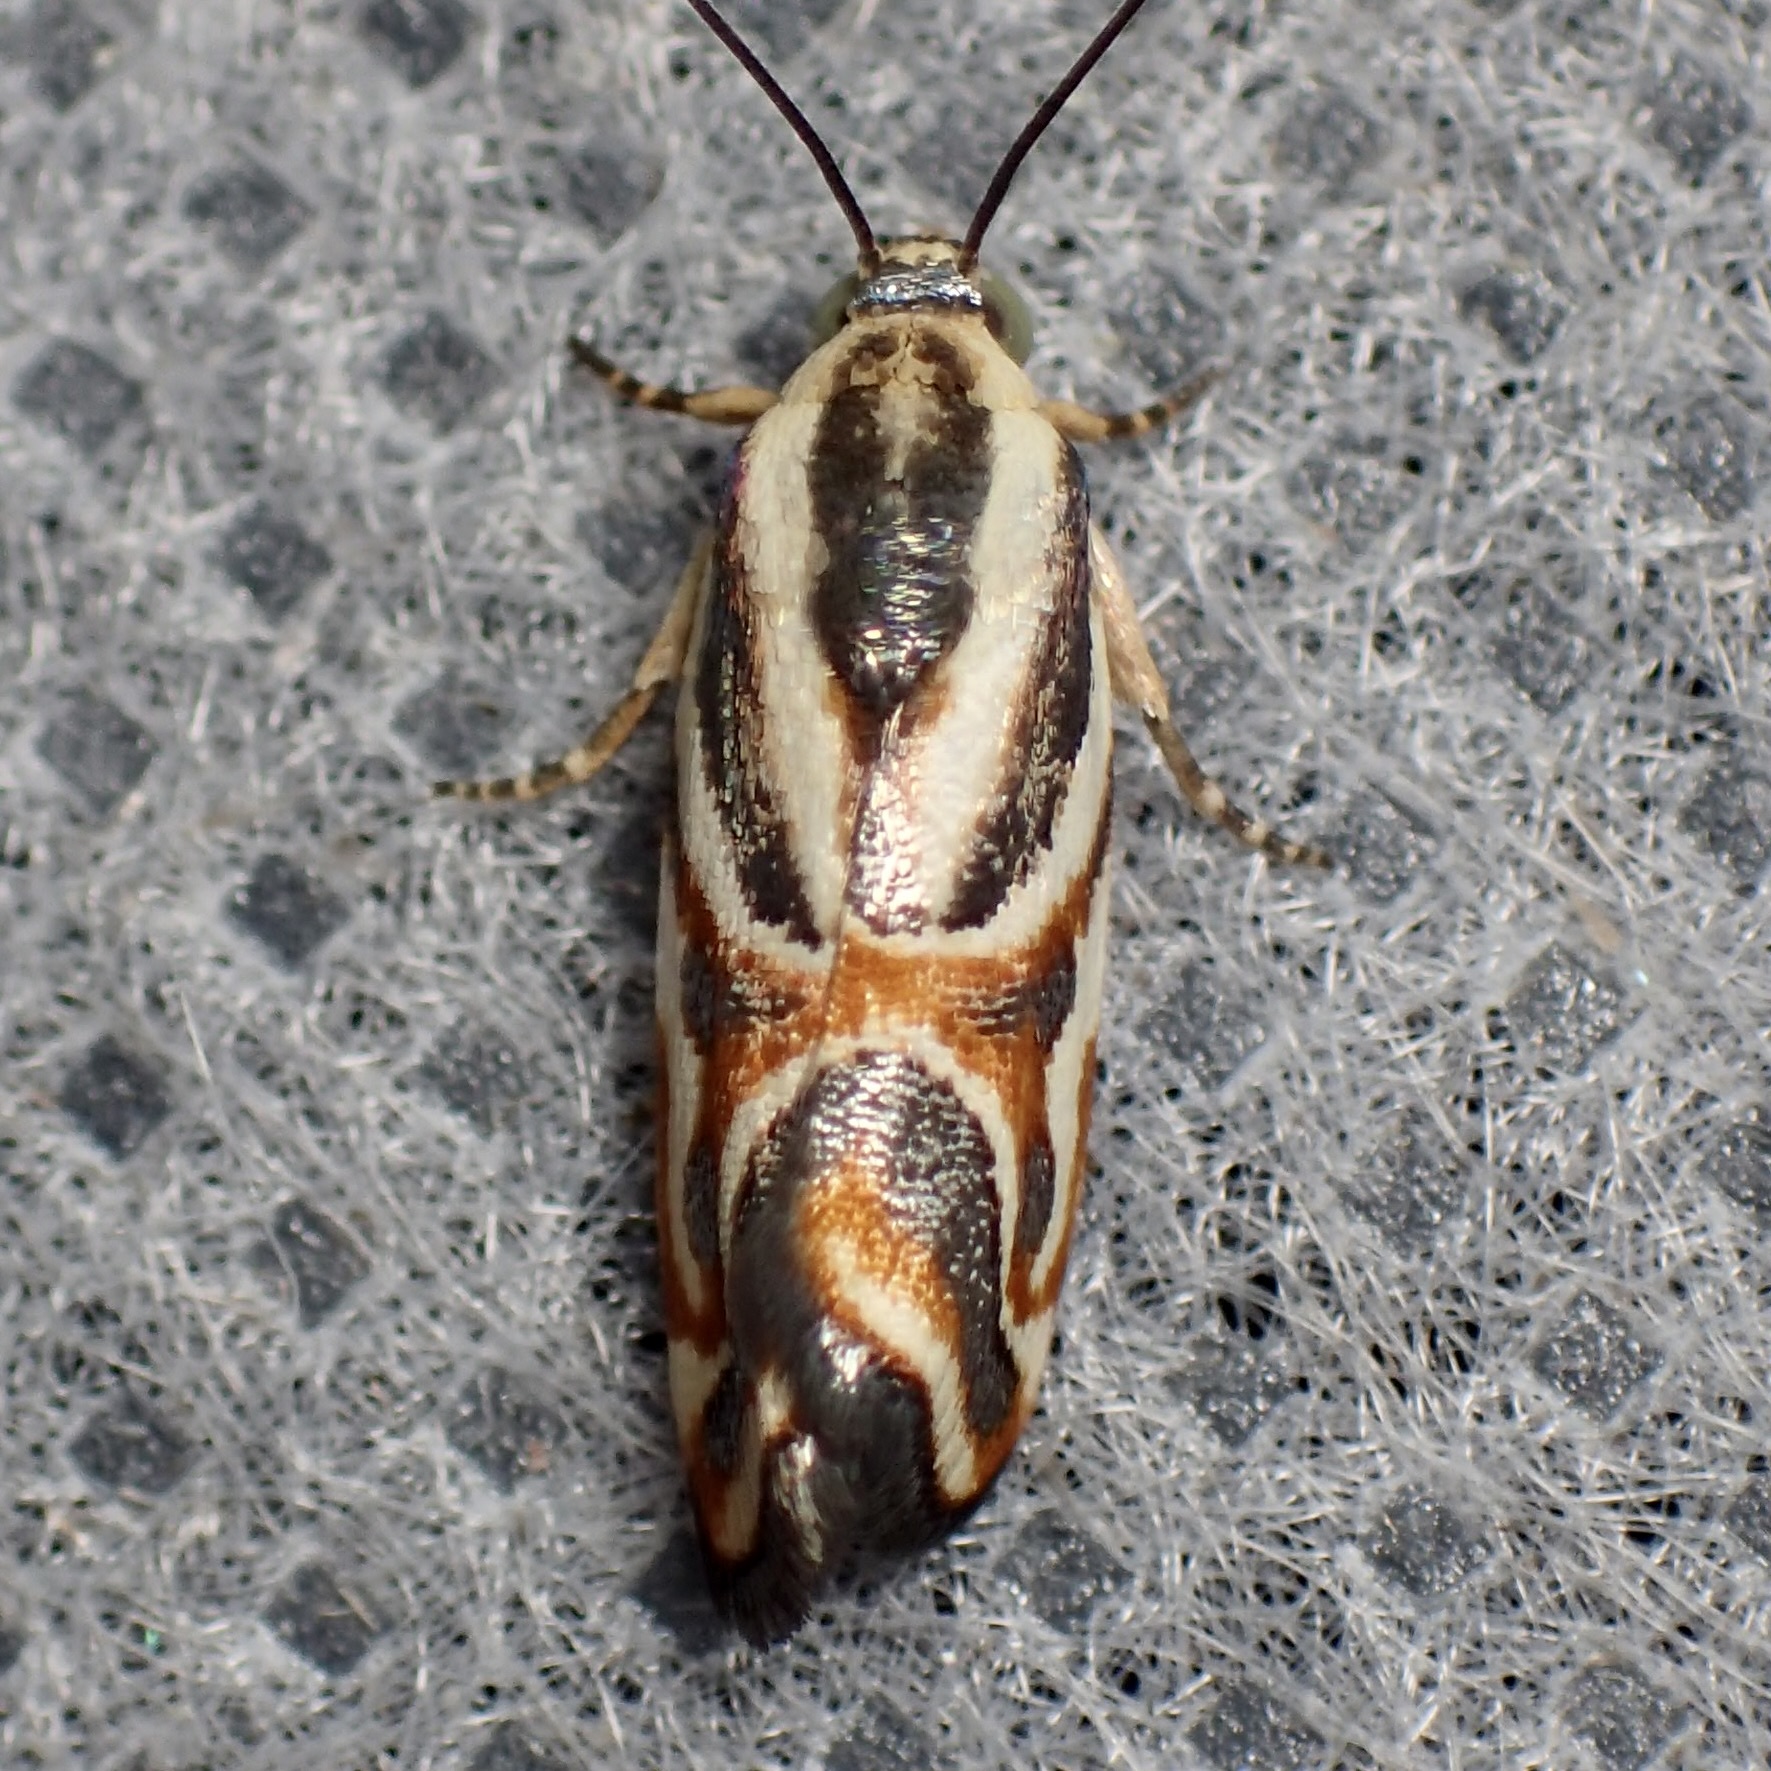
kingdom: Animalia
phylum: Arthropoda
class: Insecta
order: Lepidoptera
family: Noctuidae
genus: Spragueia
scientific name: Spragueia magnifica
